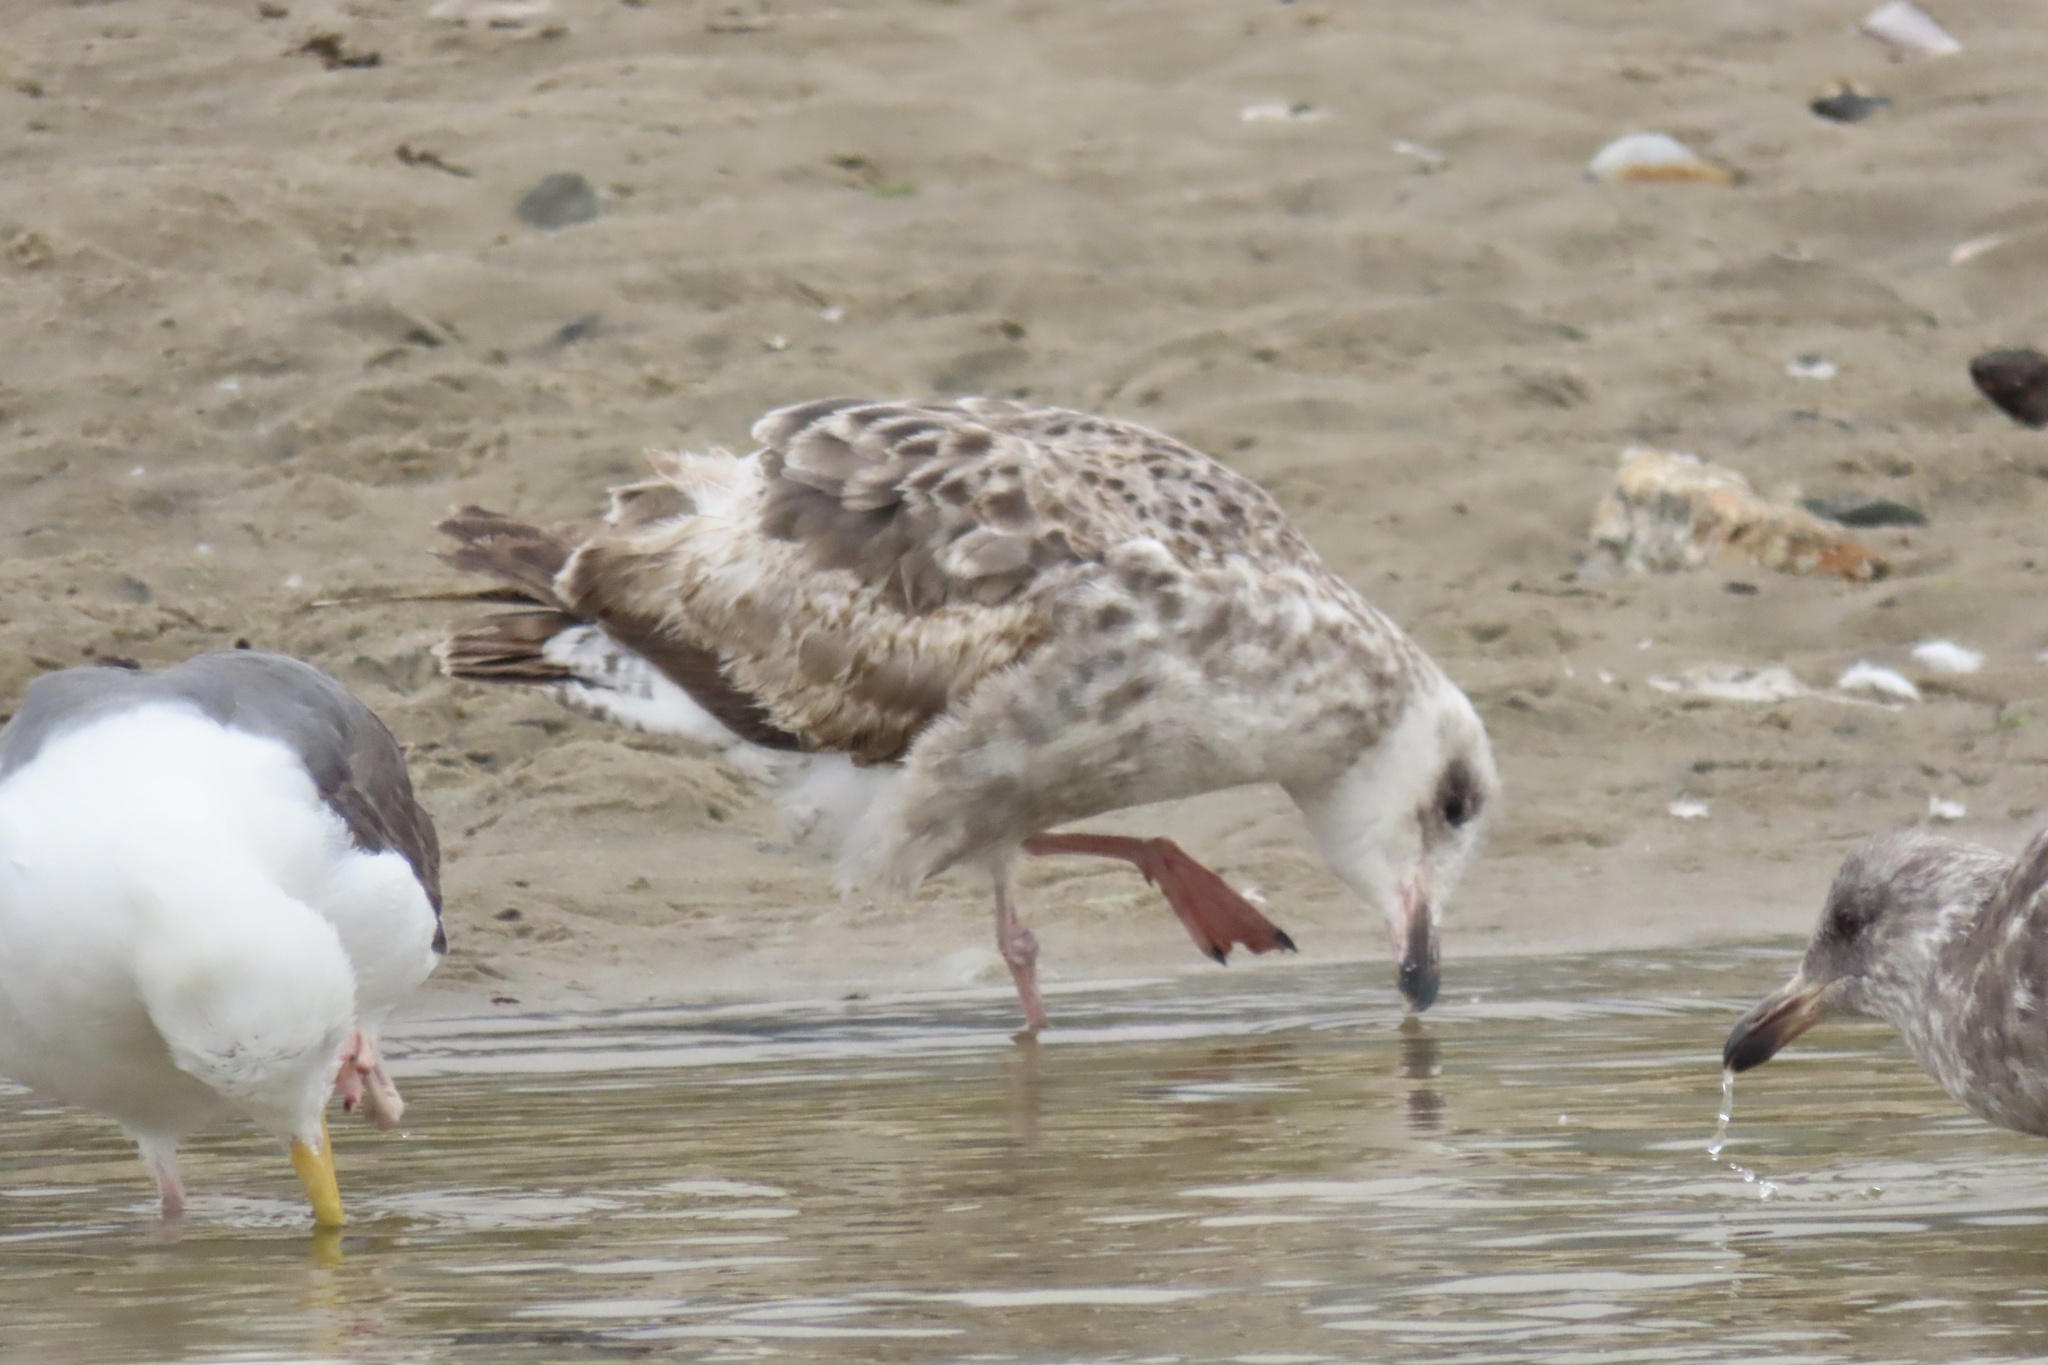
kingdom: Animalia
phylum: Chordata
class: Aves
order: Charadriiformes
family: Laridae
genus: Larus
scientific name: Larus occidentalis
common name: Western gull
